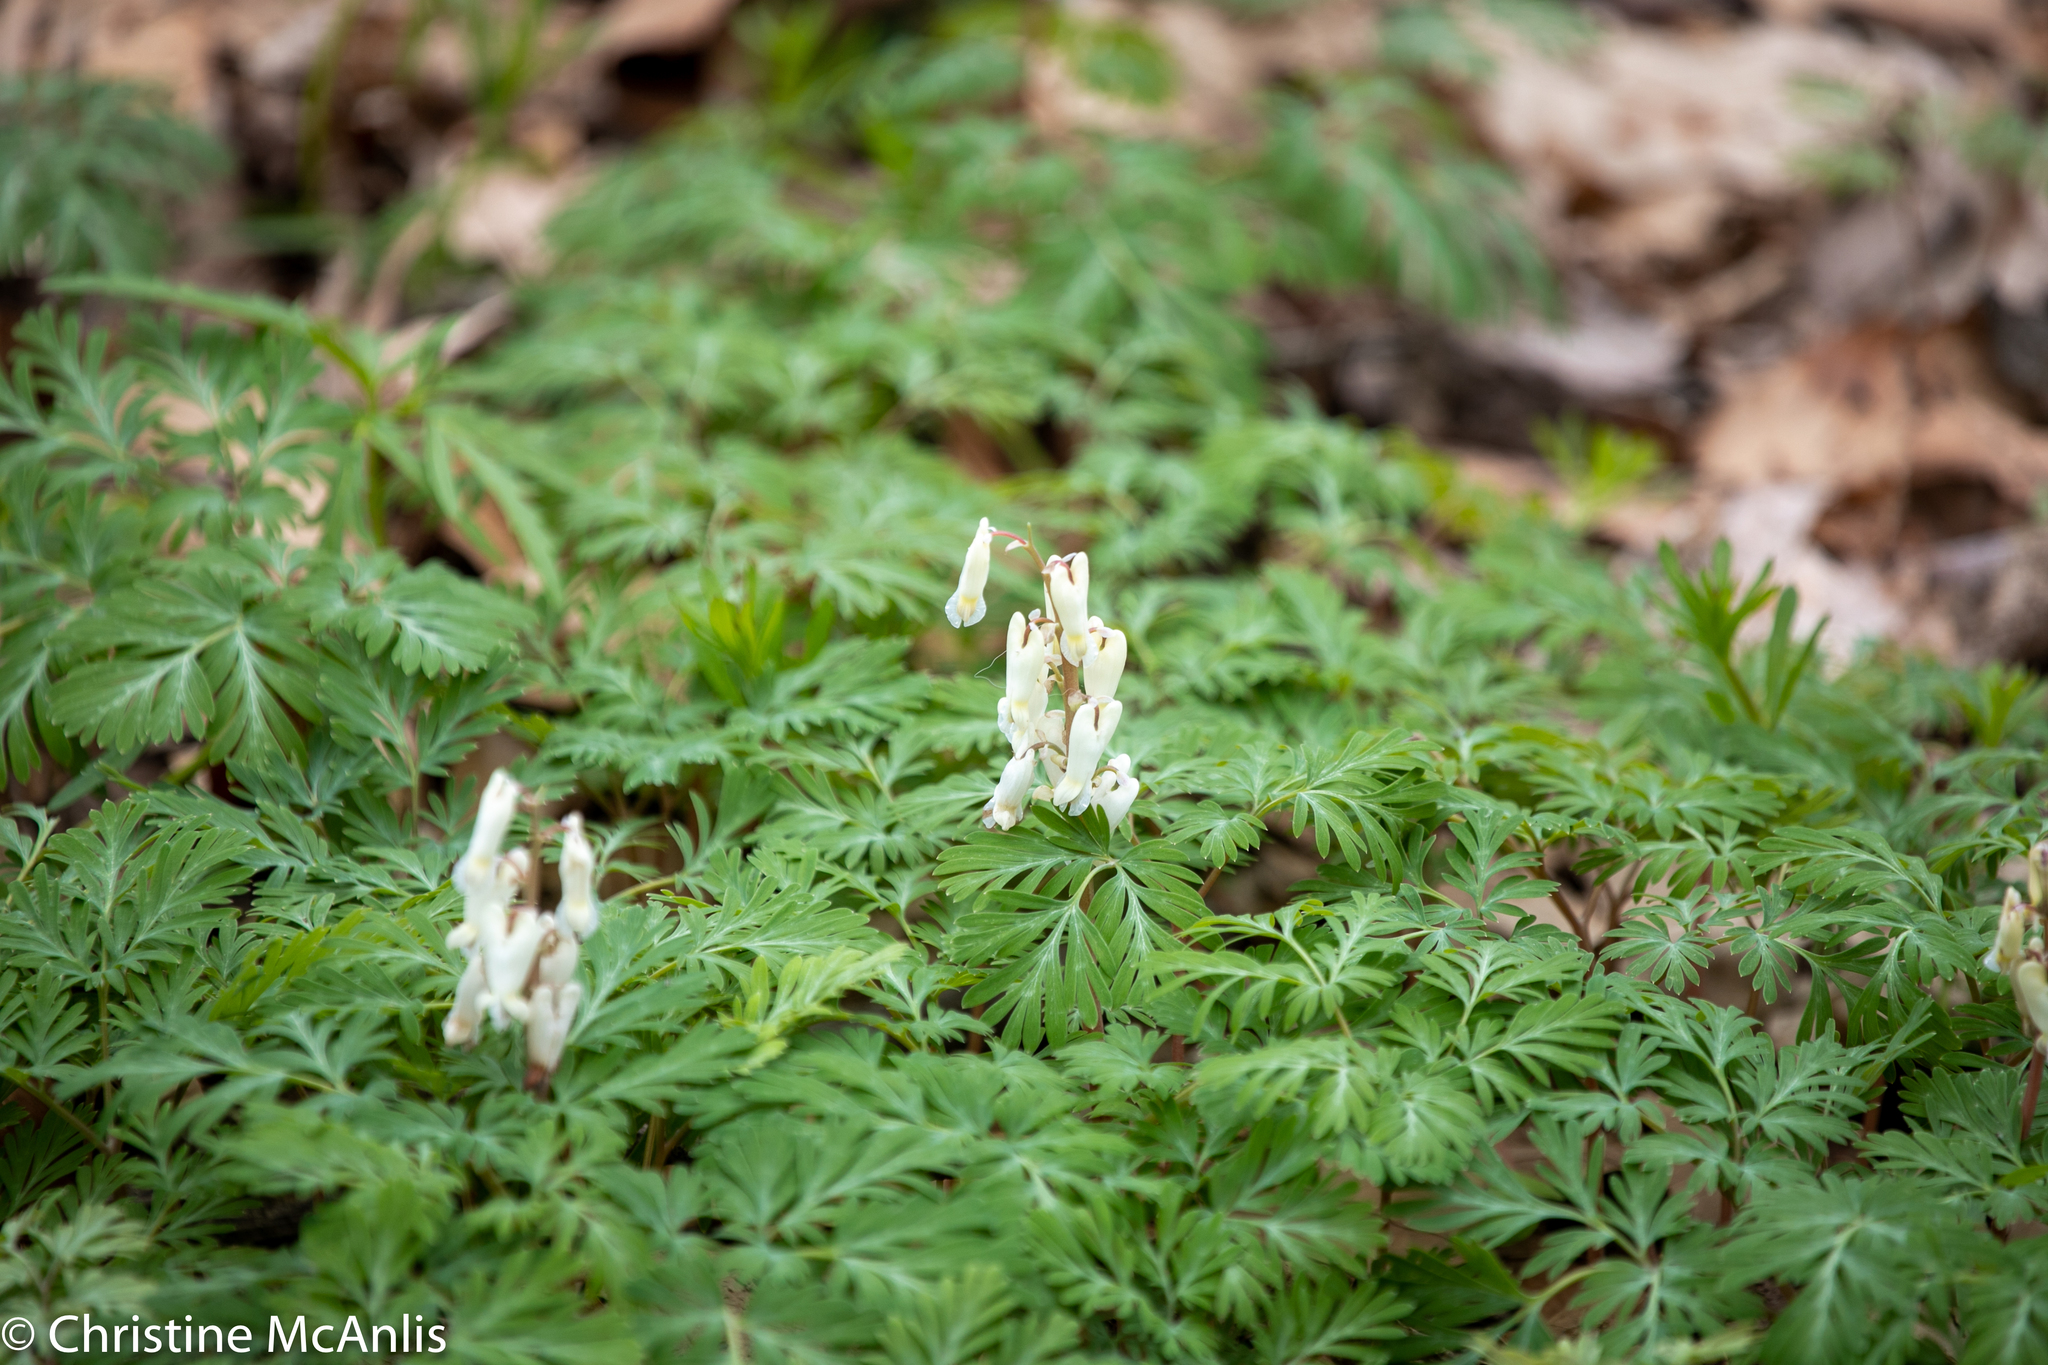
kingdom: Plantae
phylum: Tracheophyta
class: Magnoliopsida
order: Ranunculales
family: Papaveraceae
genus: Dicentra
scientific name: Dicentra canadensis
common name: Squirrel-corn
